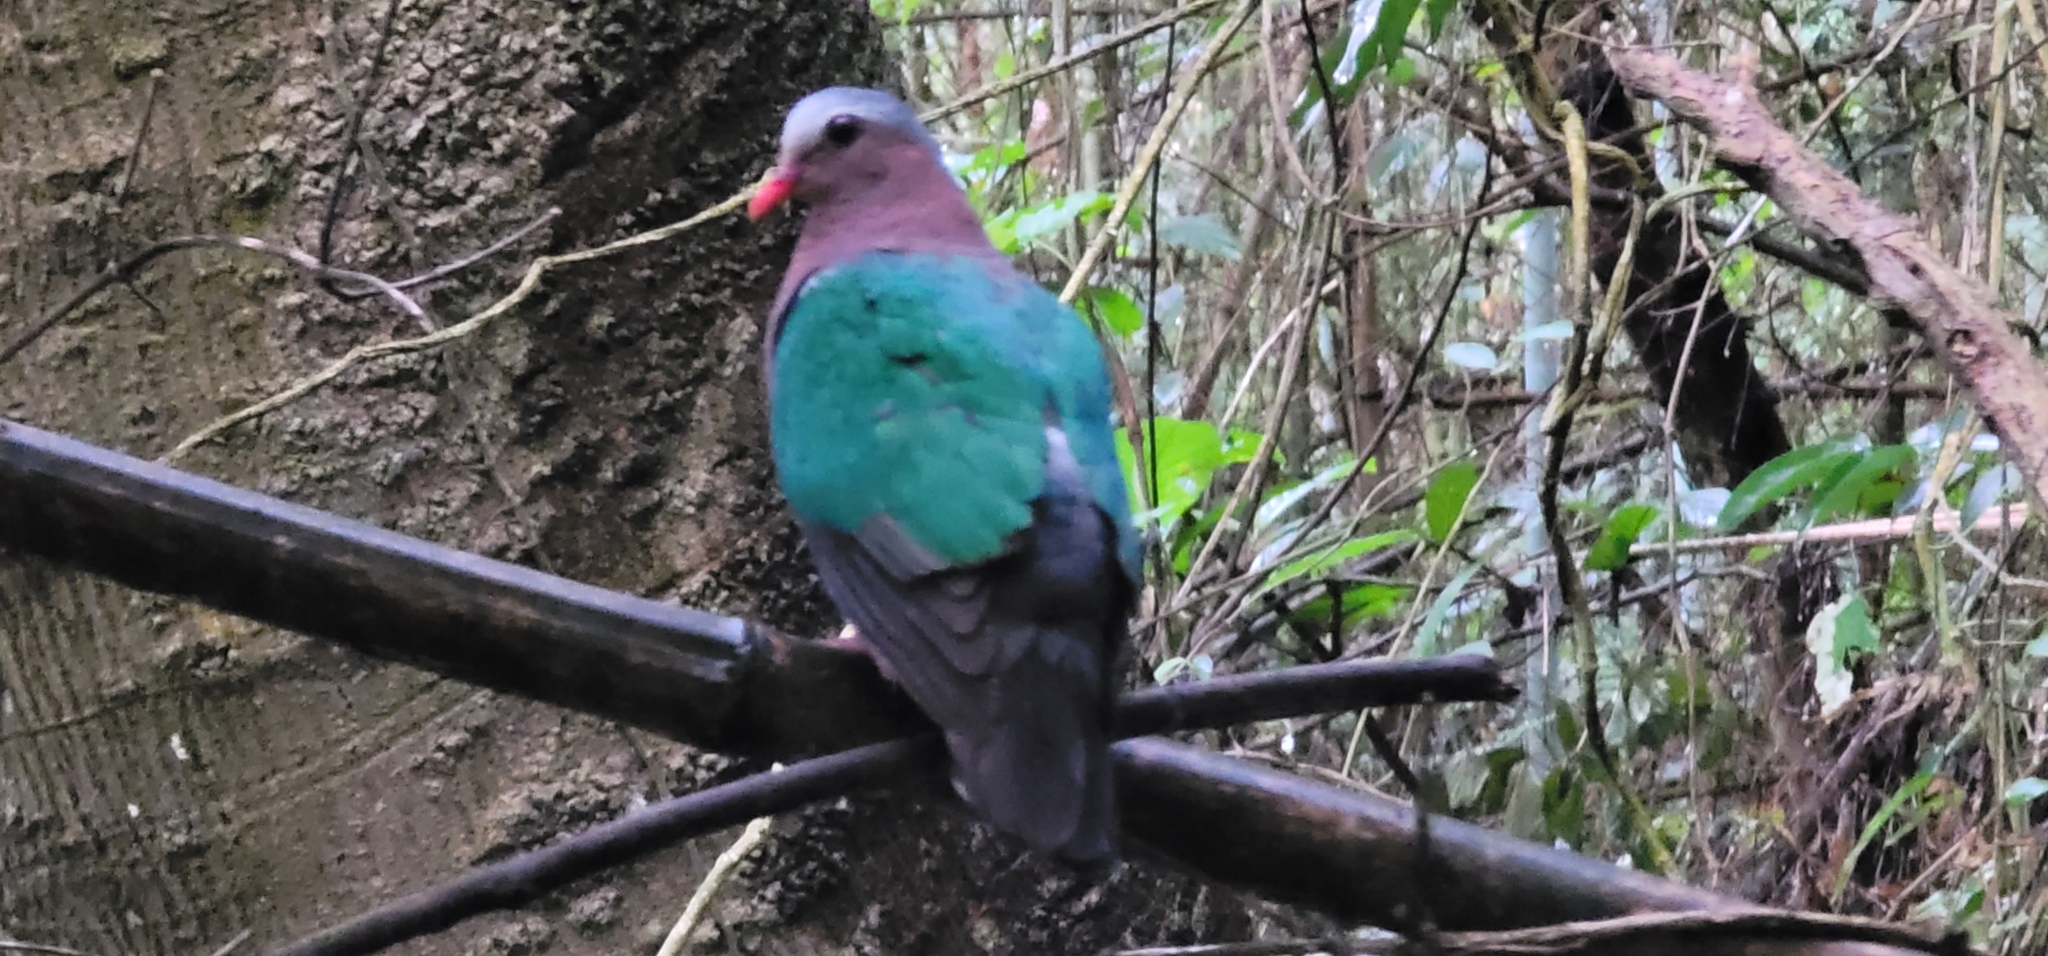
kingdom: Animalia
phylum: Chordata
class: Aves
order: Columbiformes
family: Columbidae
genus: Chalcophaps
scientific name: Chalcophaps indica
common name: Common emerald dove
